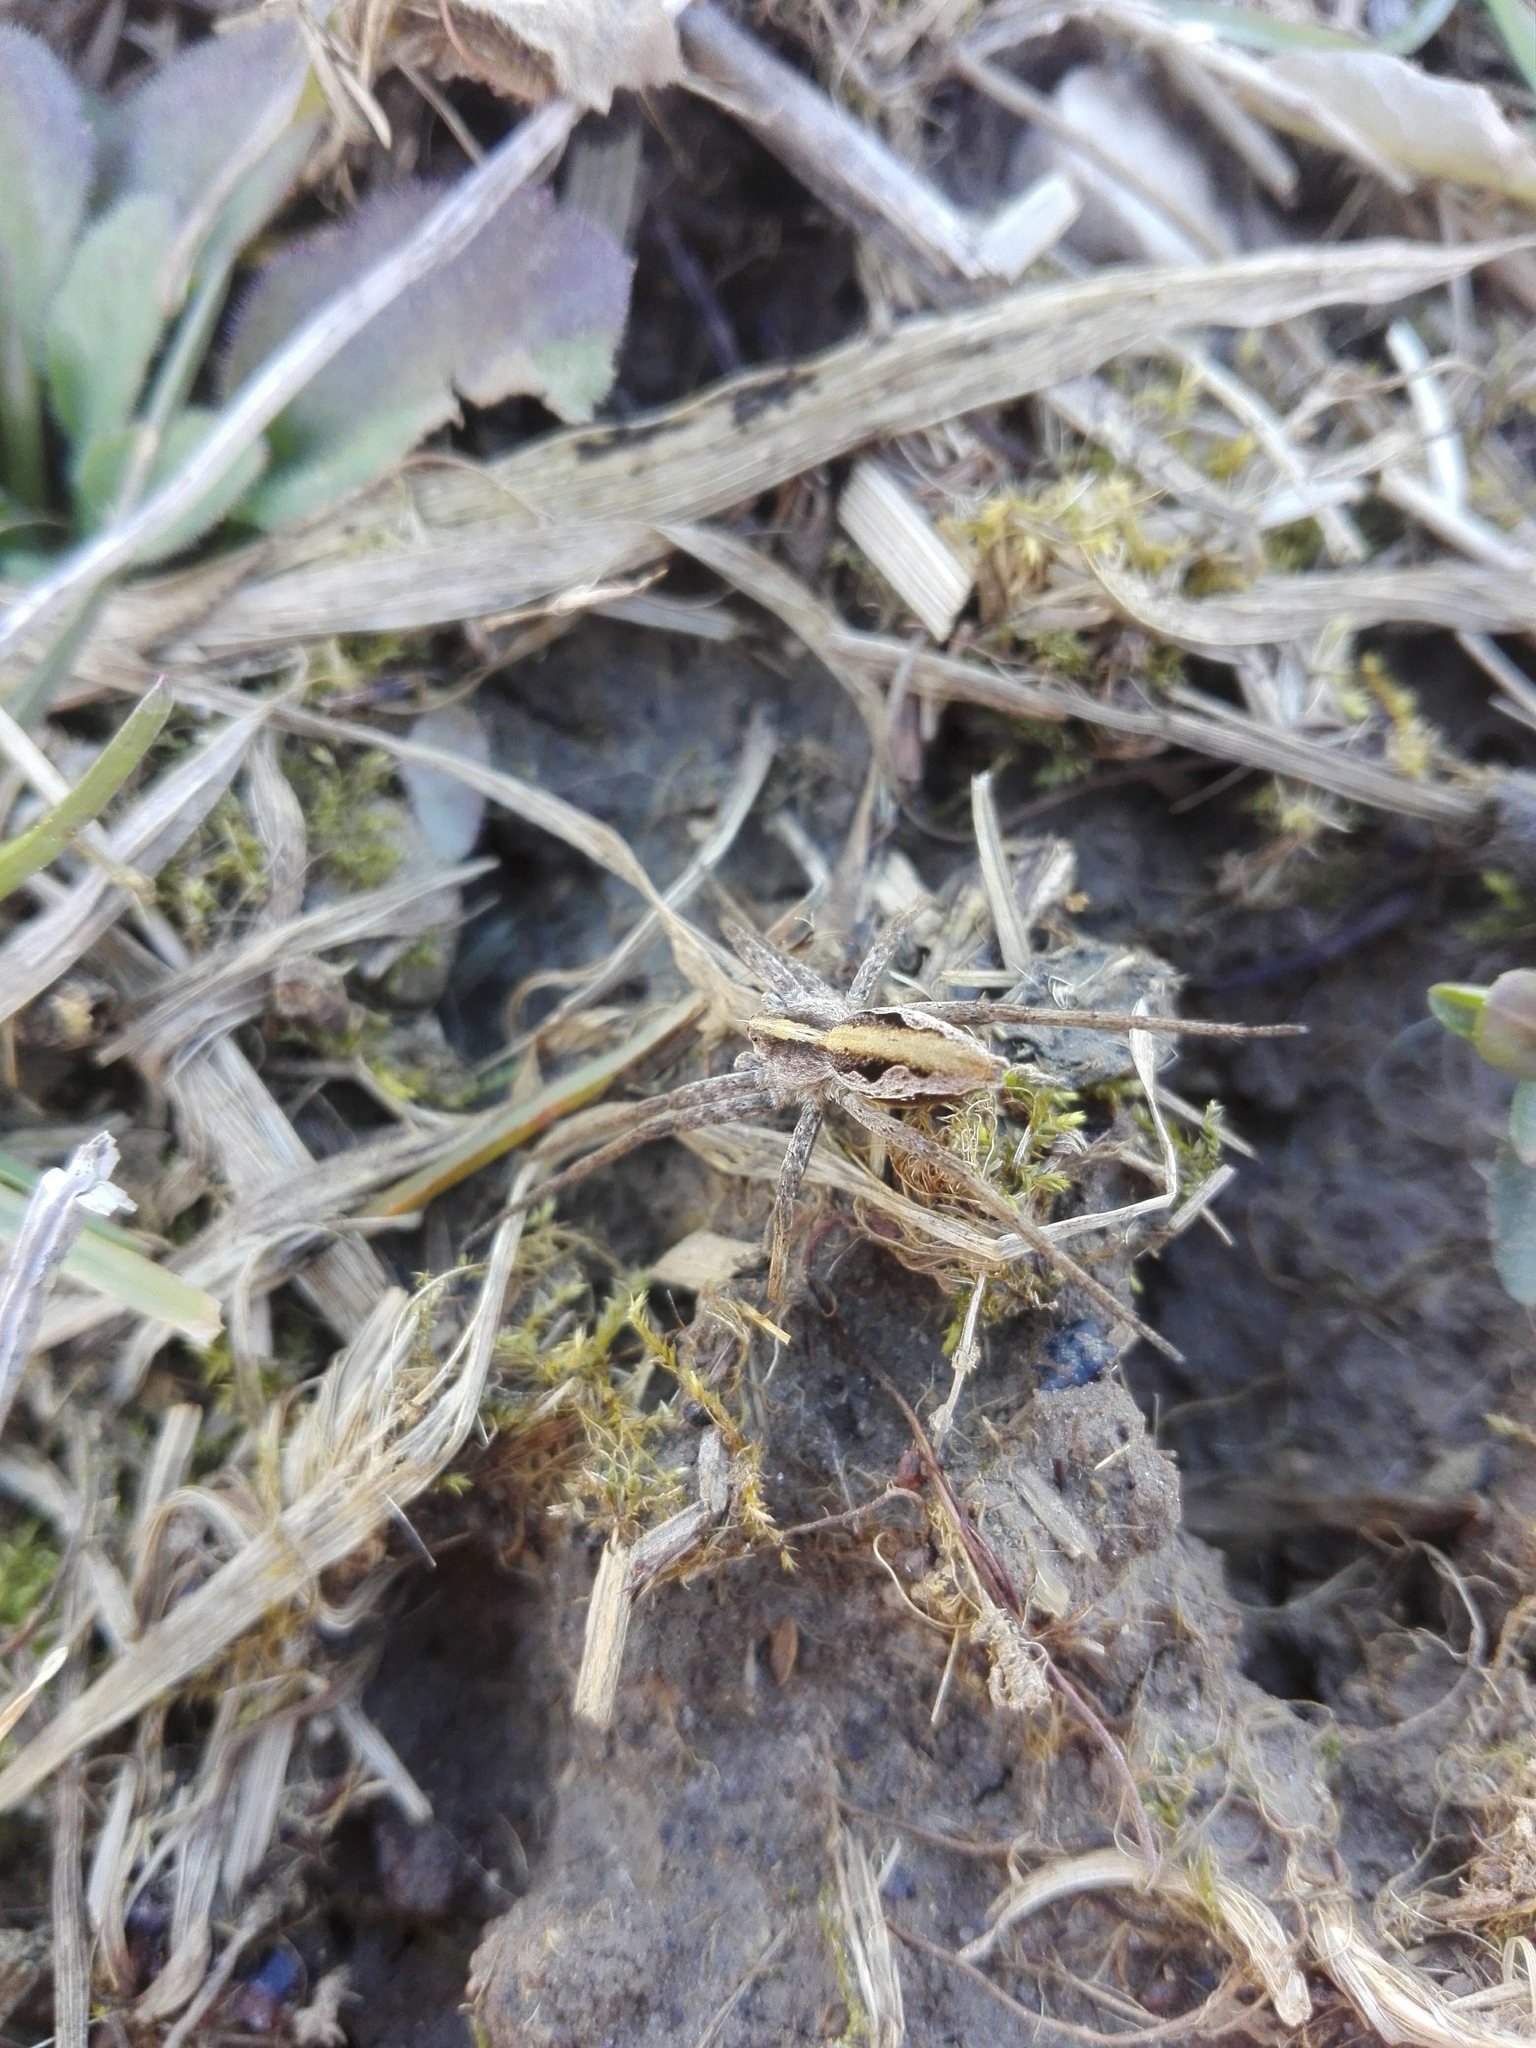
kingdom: Animalia
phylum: Arthropoda
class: Arachnida
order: Araneae
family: Pisauridae
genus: Pisaura
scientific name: Pisaura mirabilis
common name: Tent spider
